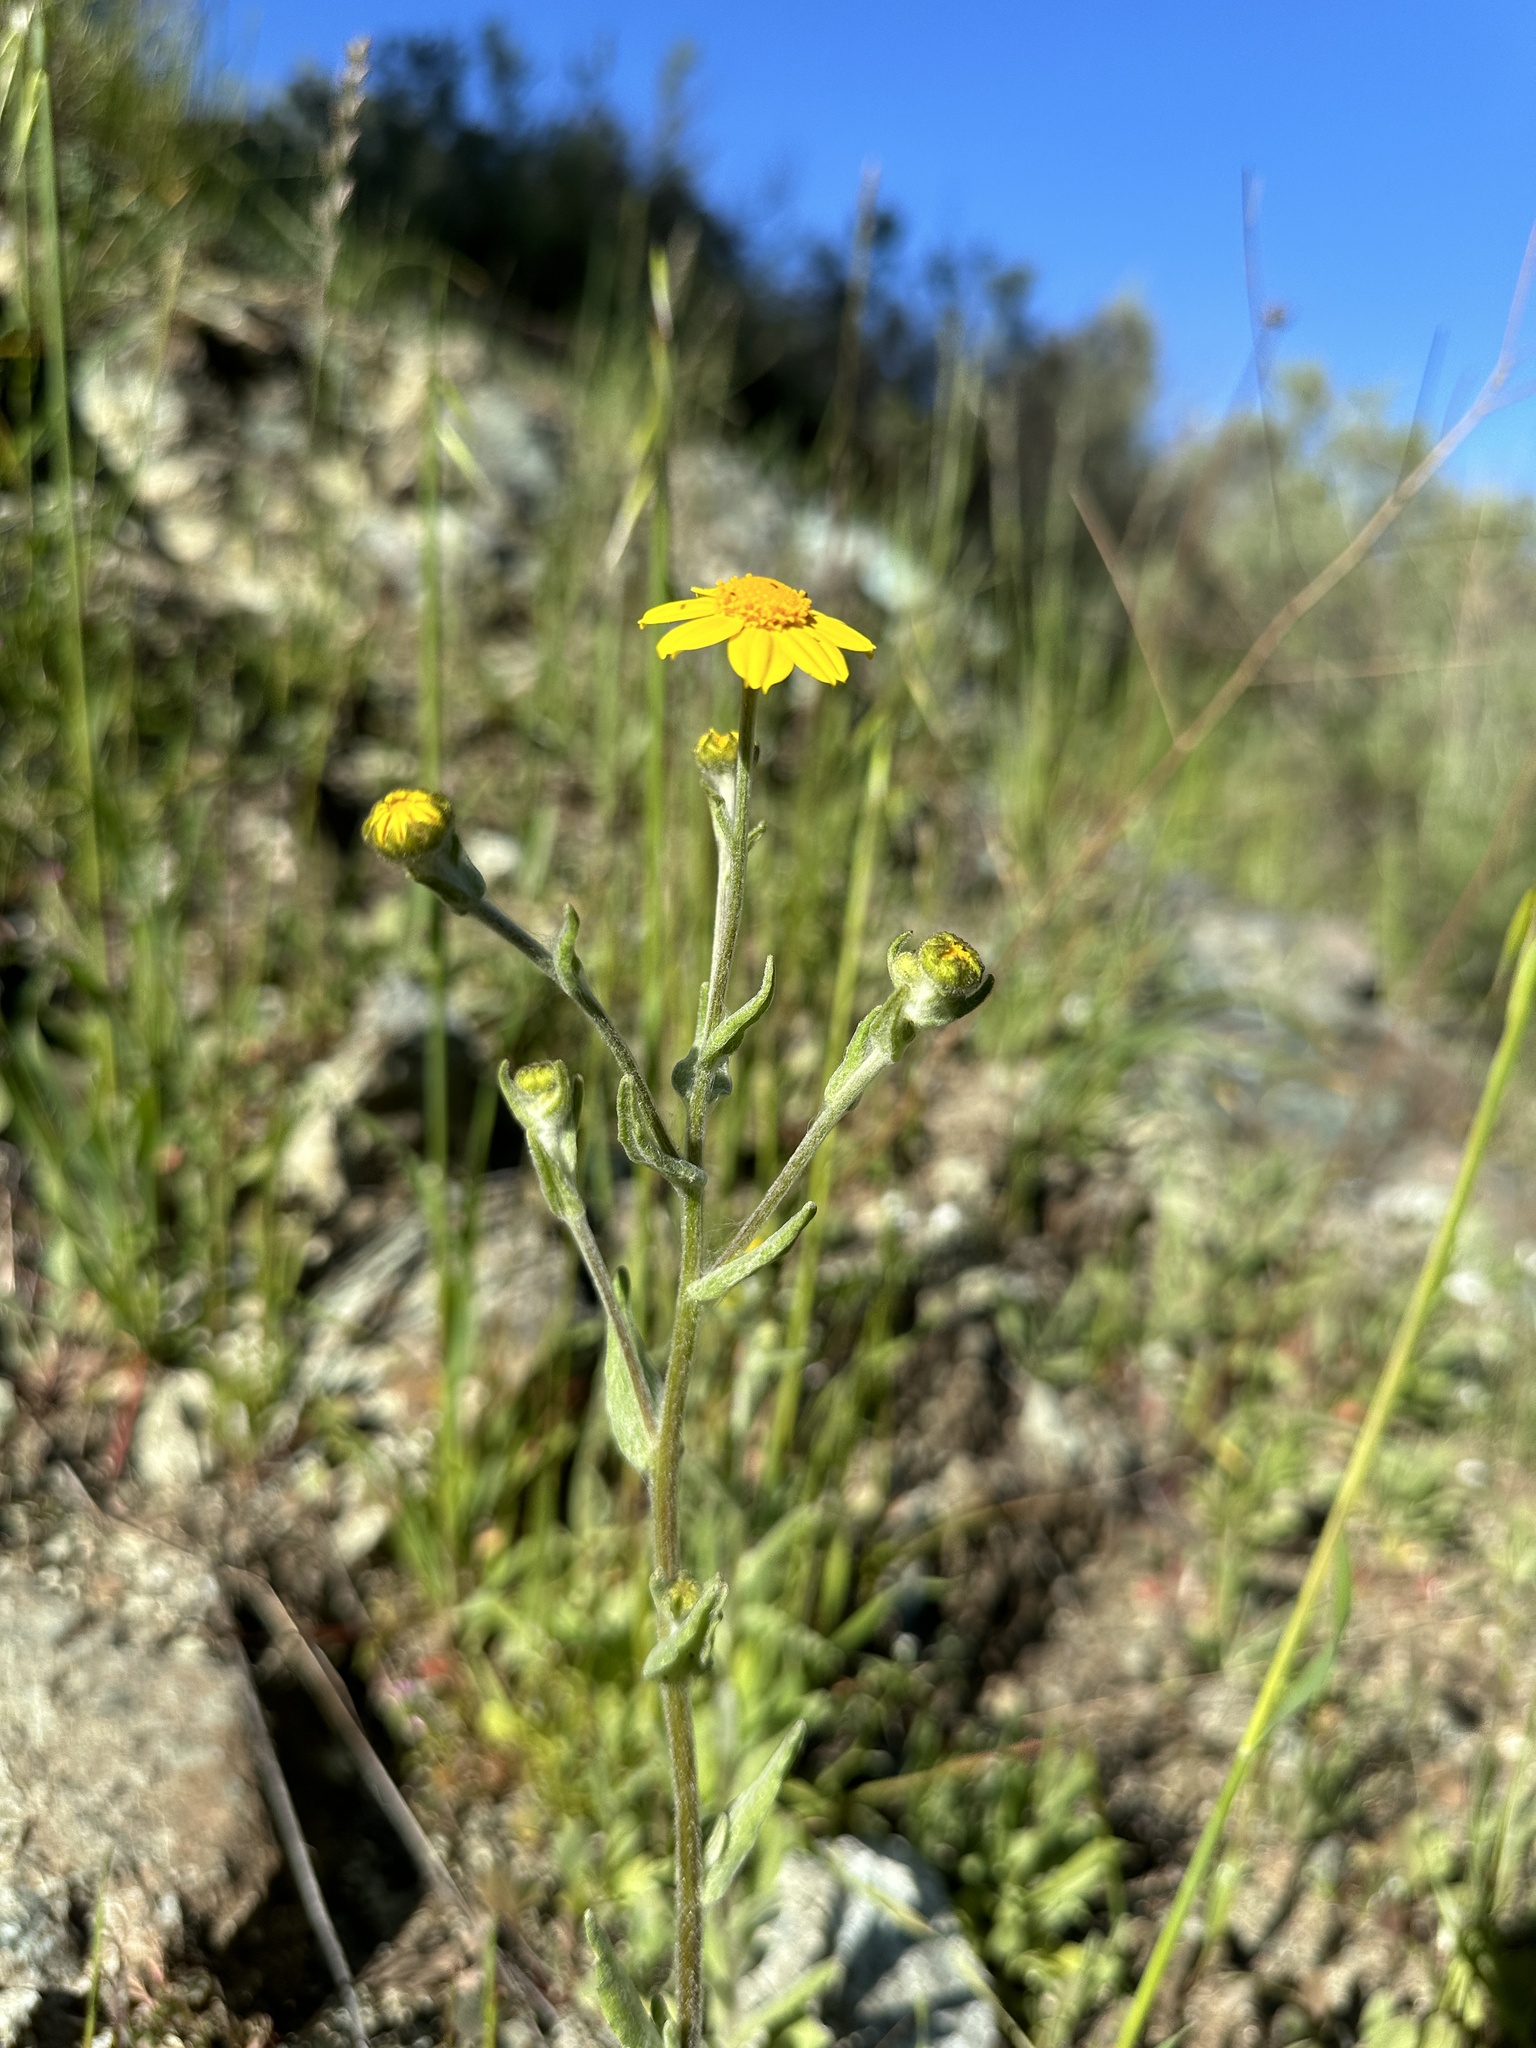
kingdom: Plantae
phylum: Tracheophyta
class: Magnoliopsida
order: Asterales
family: Asteraceae
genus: Monolopia
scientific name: Monolopia gracilens
